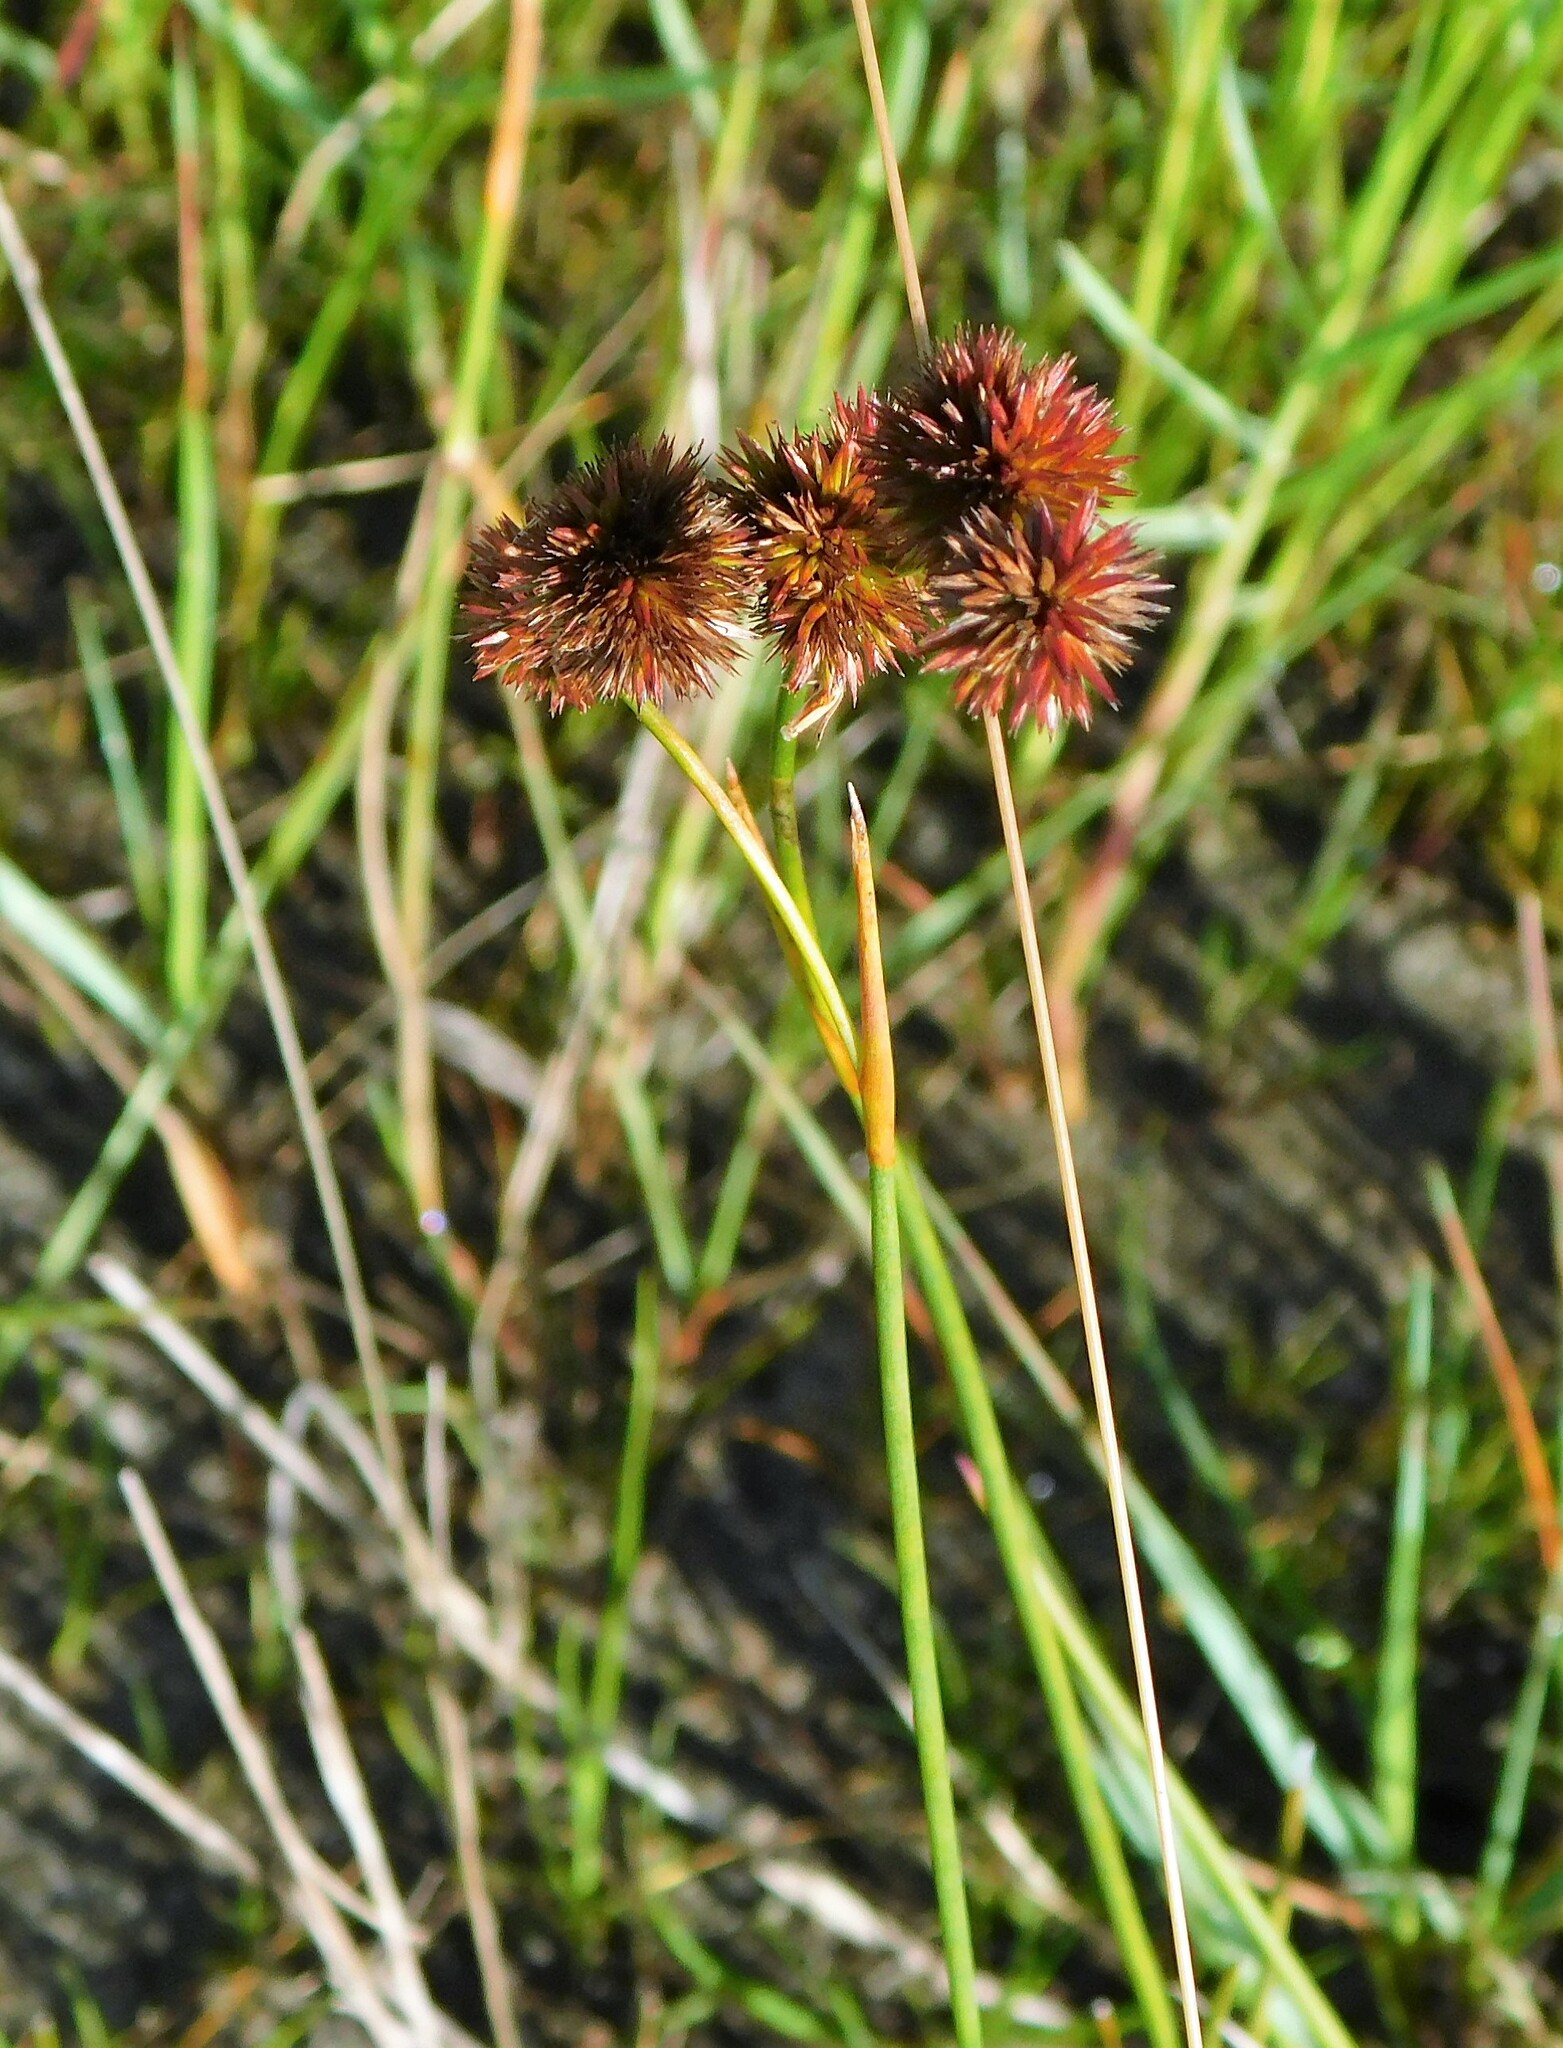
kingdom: Plantae
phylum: Tracheophyta
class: Liliopsida
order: Poales
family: Juncaceae
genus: Juncus
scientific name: Juncus megacephalus
